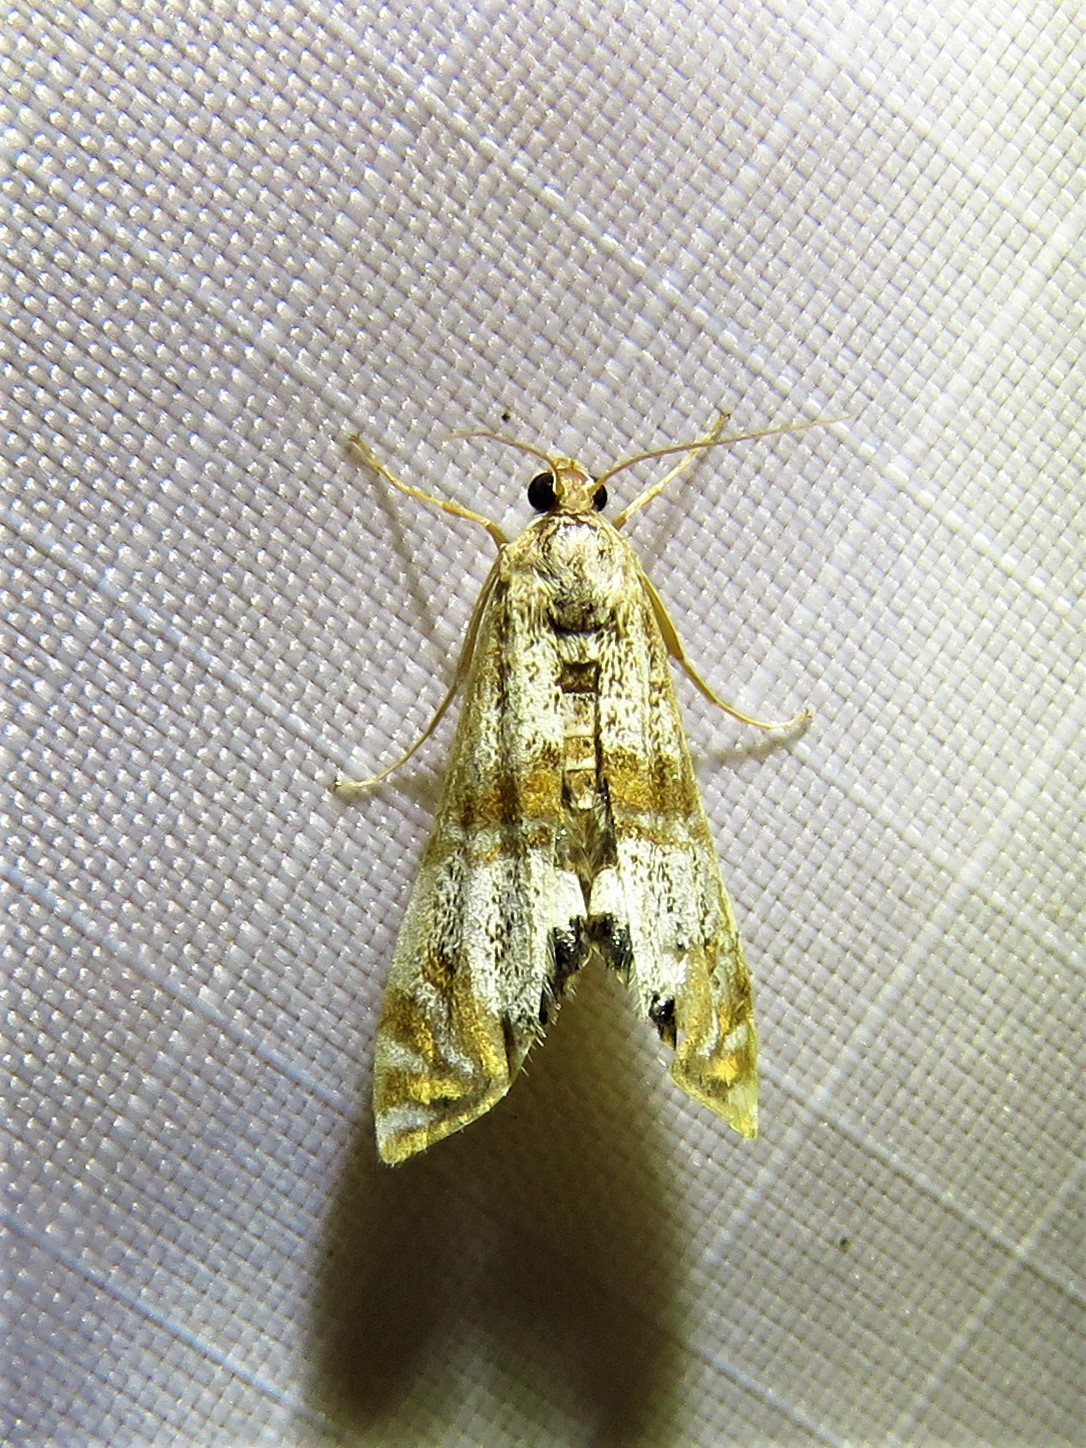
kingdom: Animalia
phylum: Arthropoda
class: Insecta
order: Lepidoptera
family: Crambidae
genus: Petrophila
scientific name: Petrophila bifascialis
